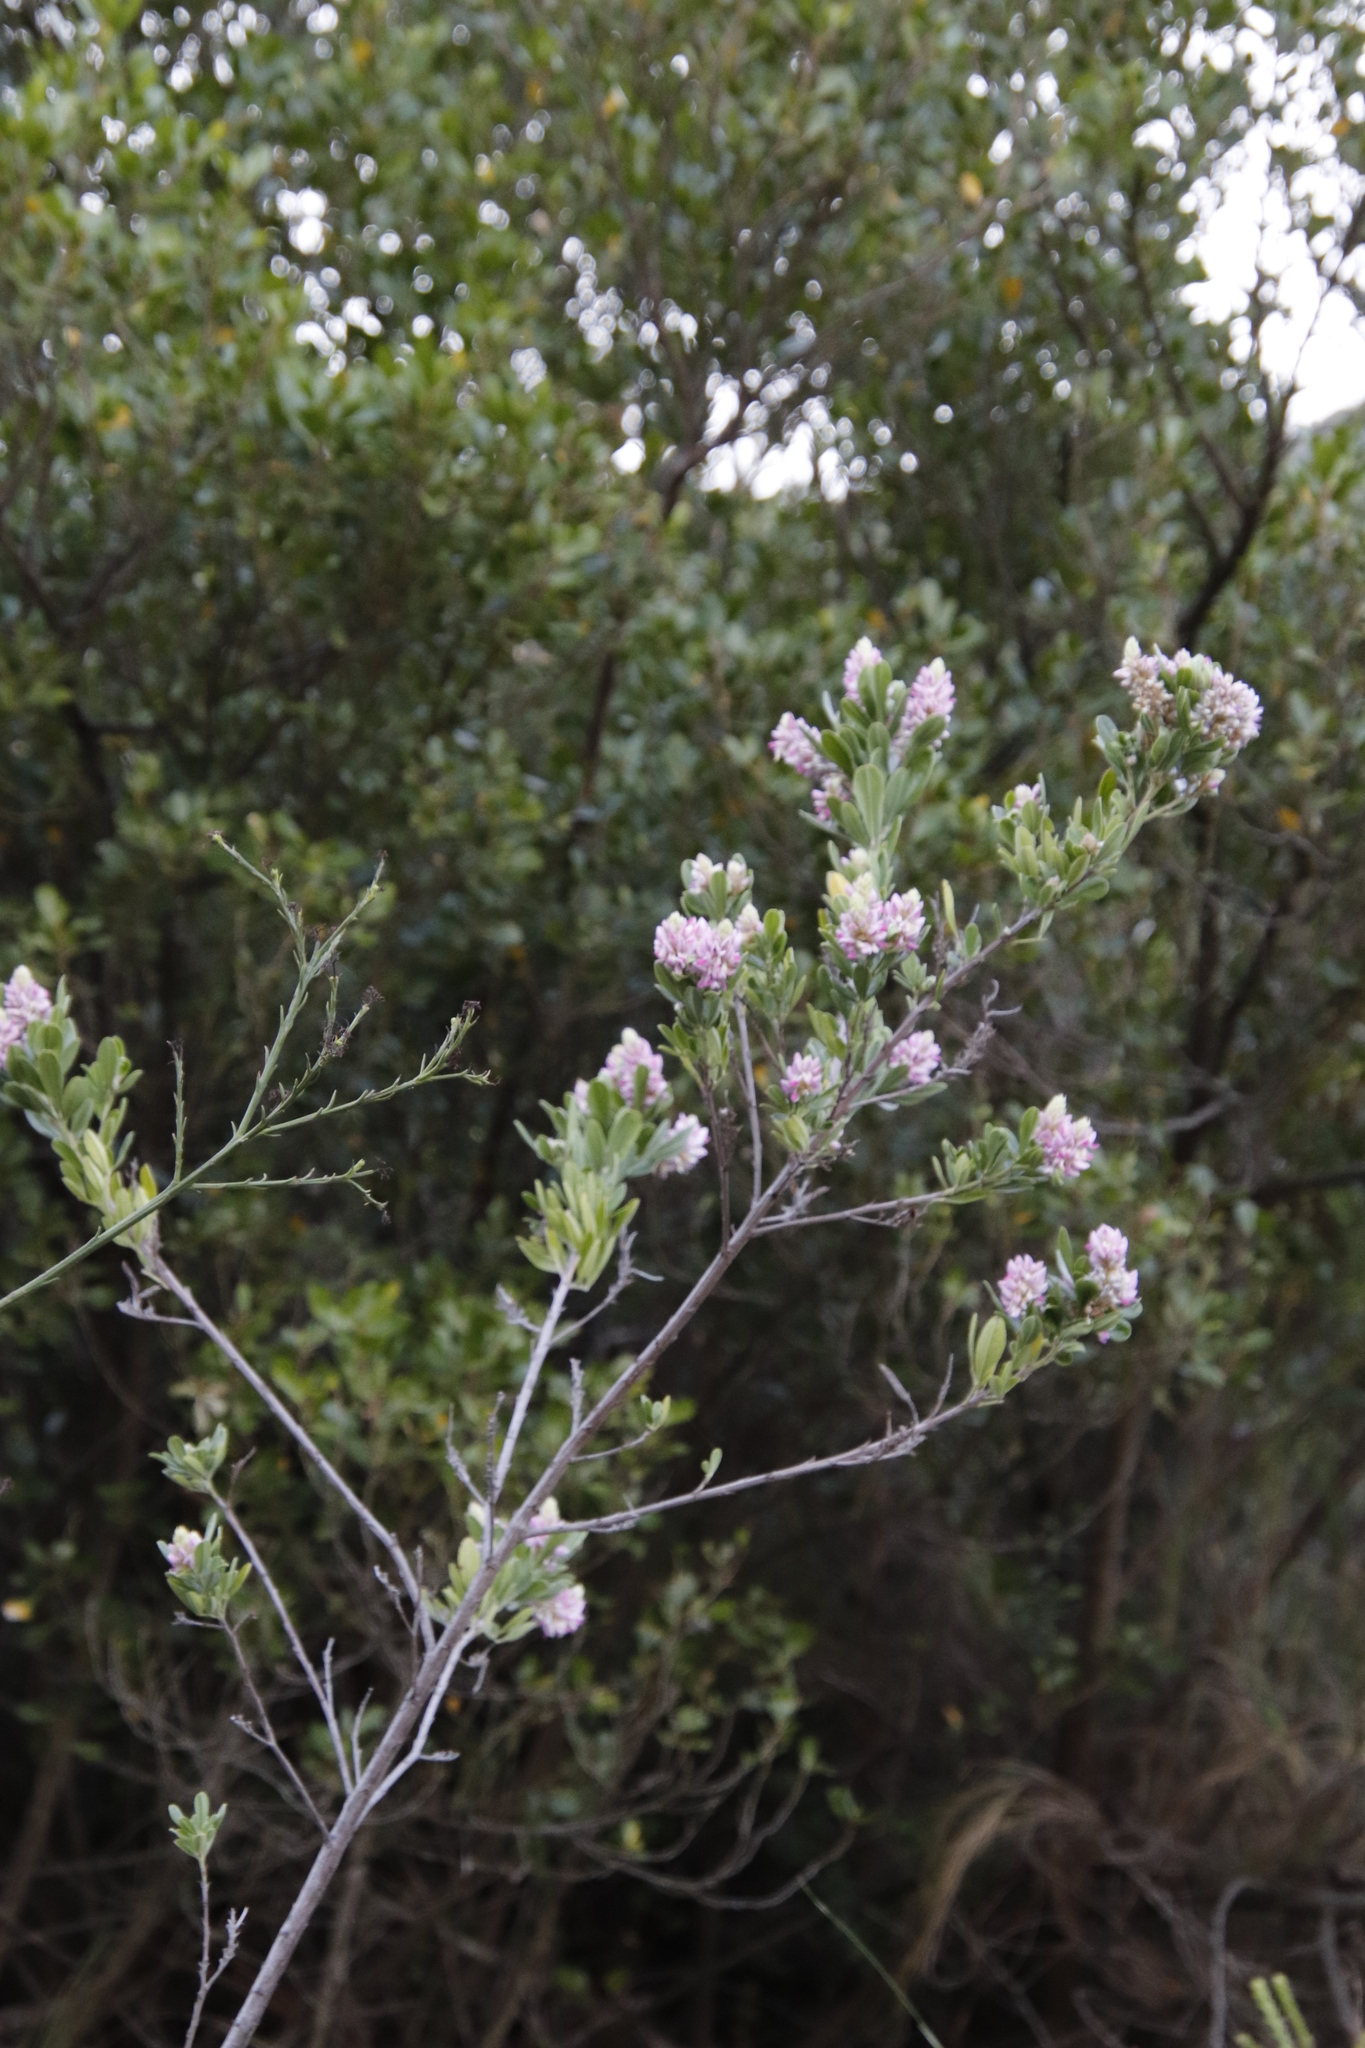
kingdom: Plantae
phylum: Tracheophyta
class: Magnoliopsida
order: Fabales
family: Fabaceae
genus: Indigofera
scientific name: Indigofera cytisoides
